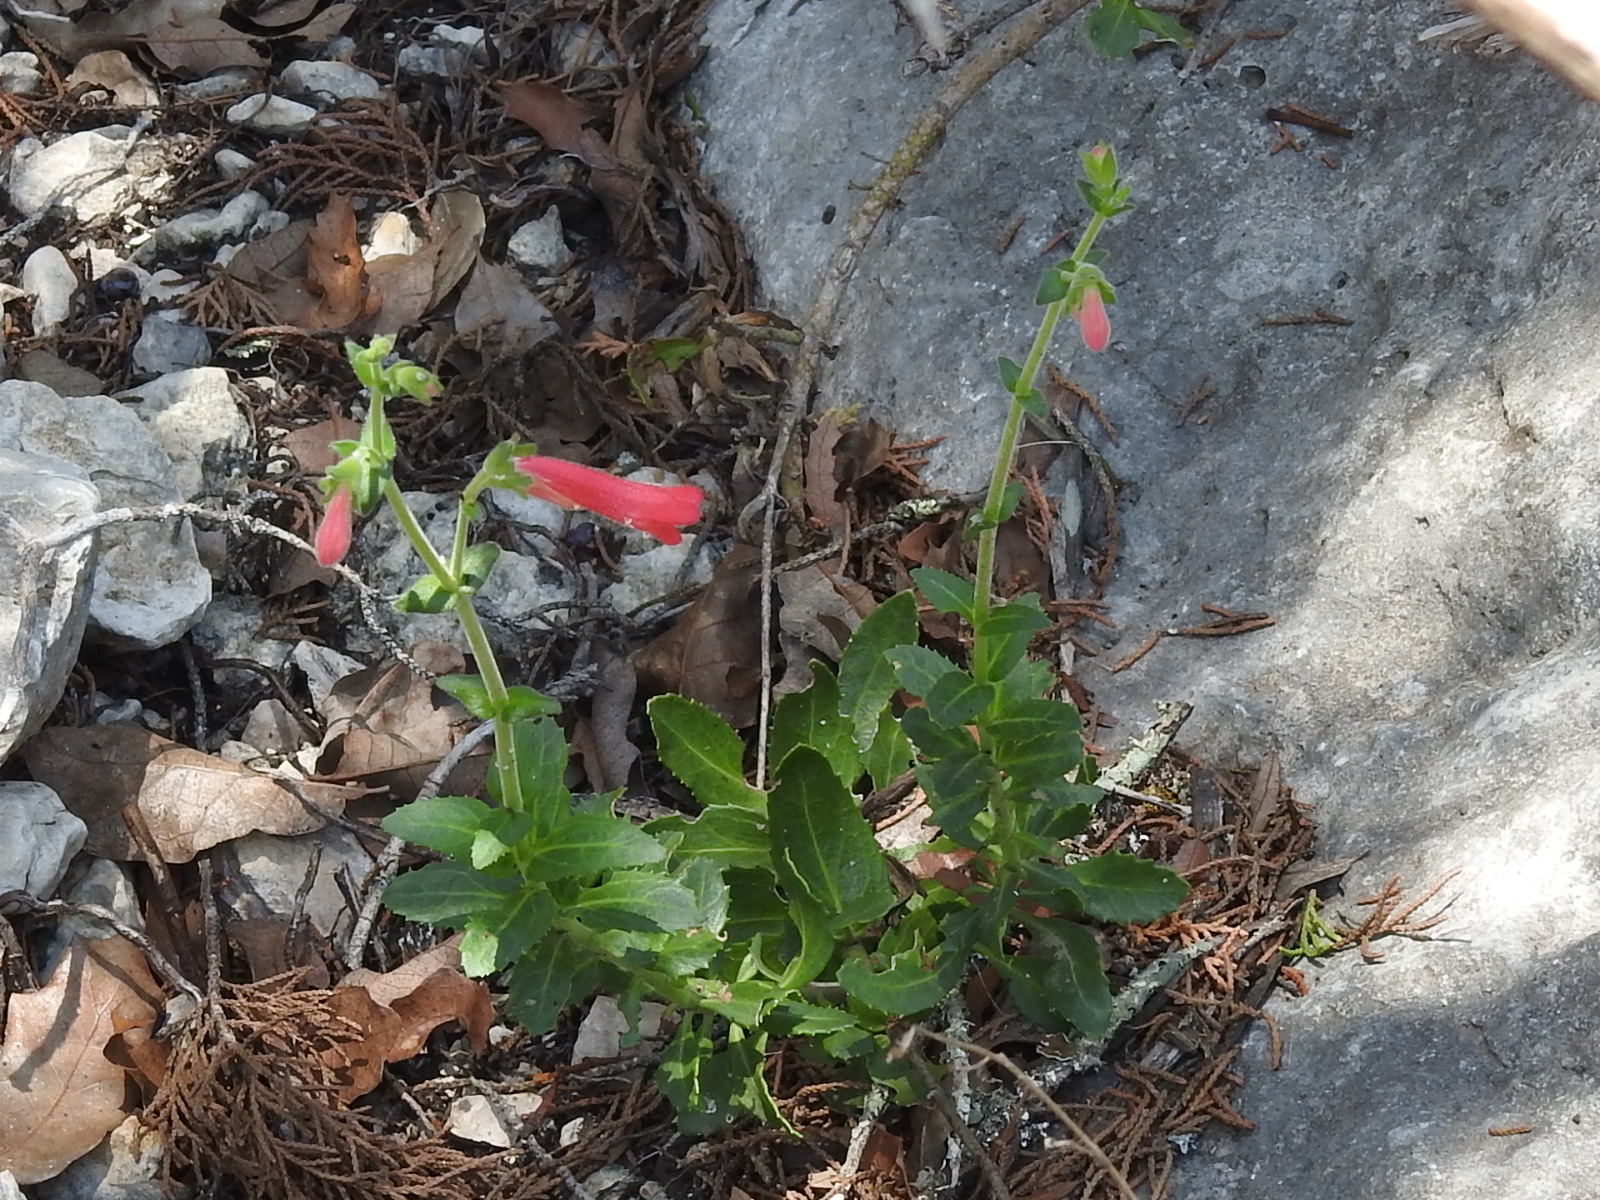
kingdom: Plantae
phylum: Tracheophyta
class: Magnoliopsida
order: Lamiales
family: Plantaginaceae
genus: Penstemon
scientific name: Penstemon baccharifolius
